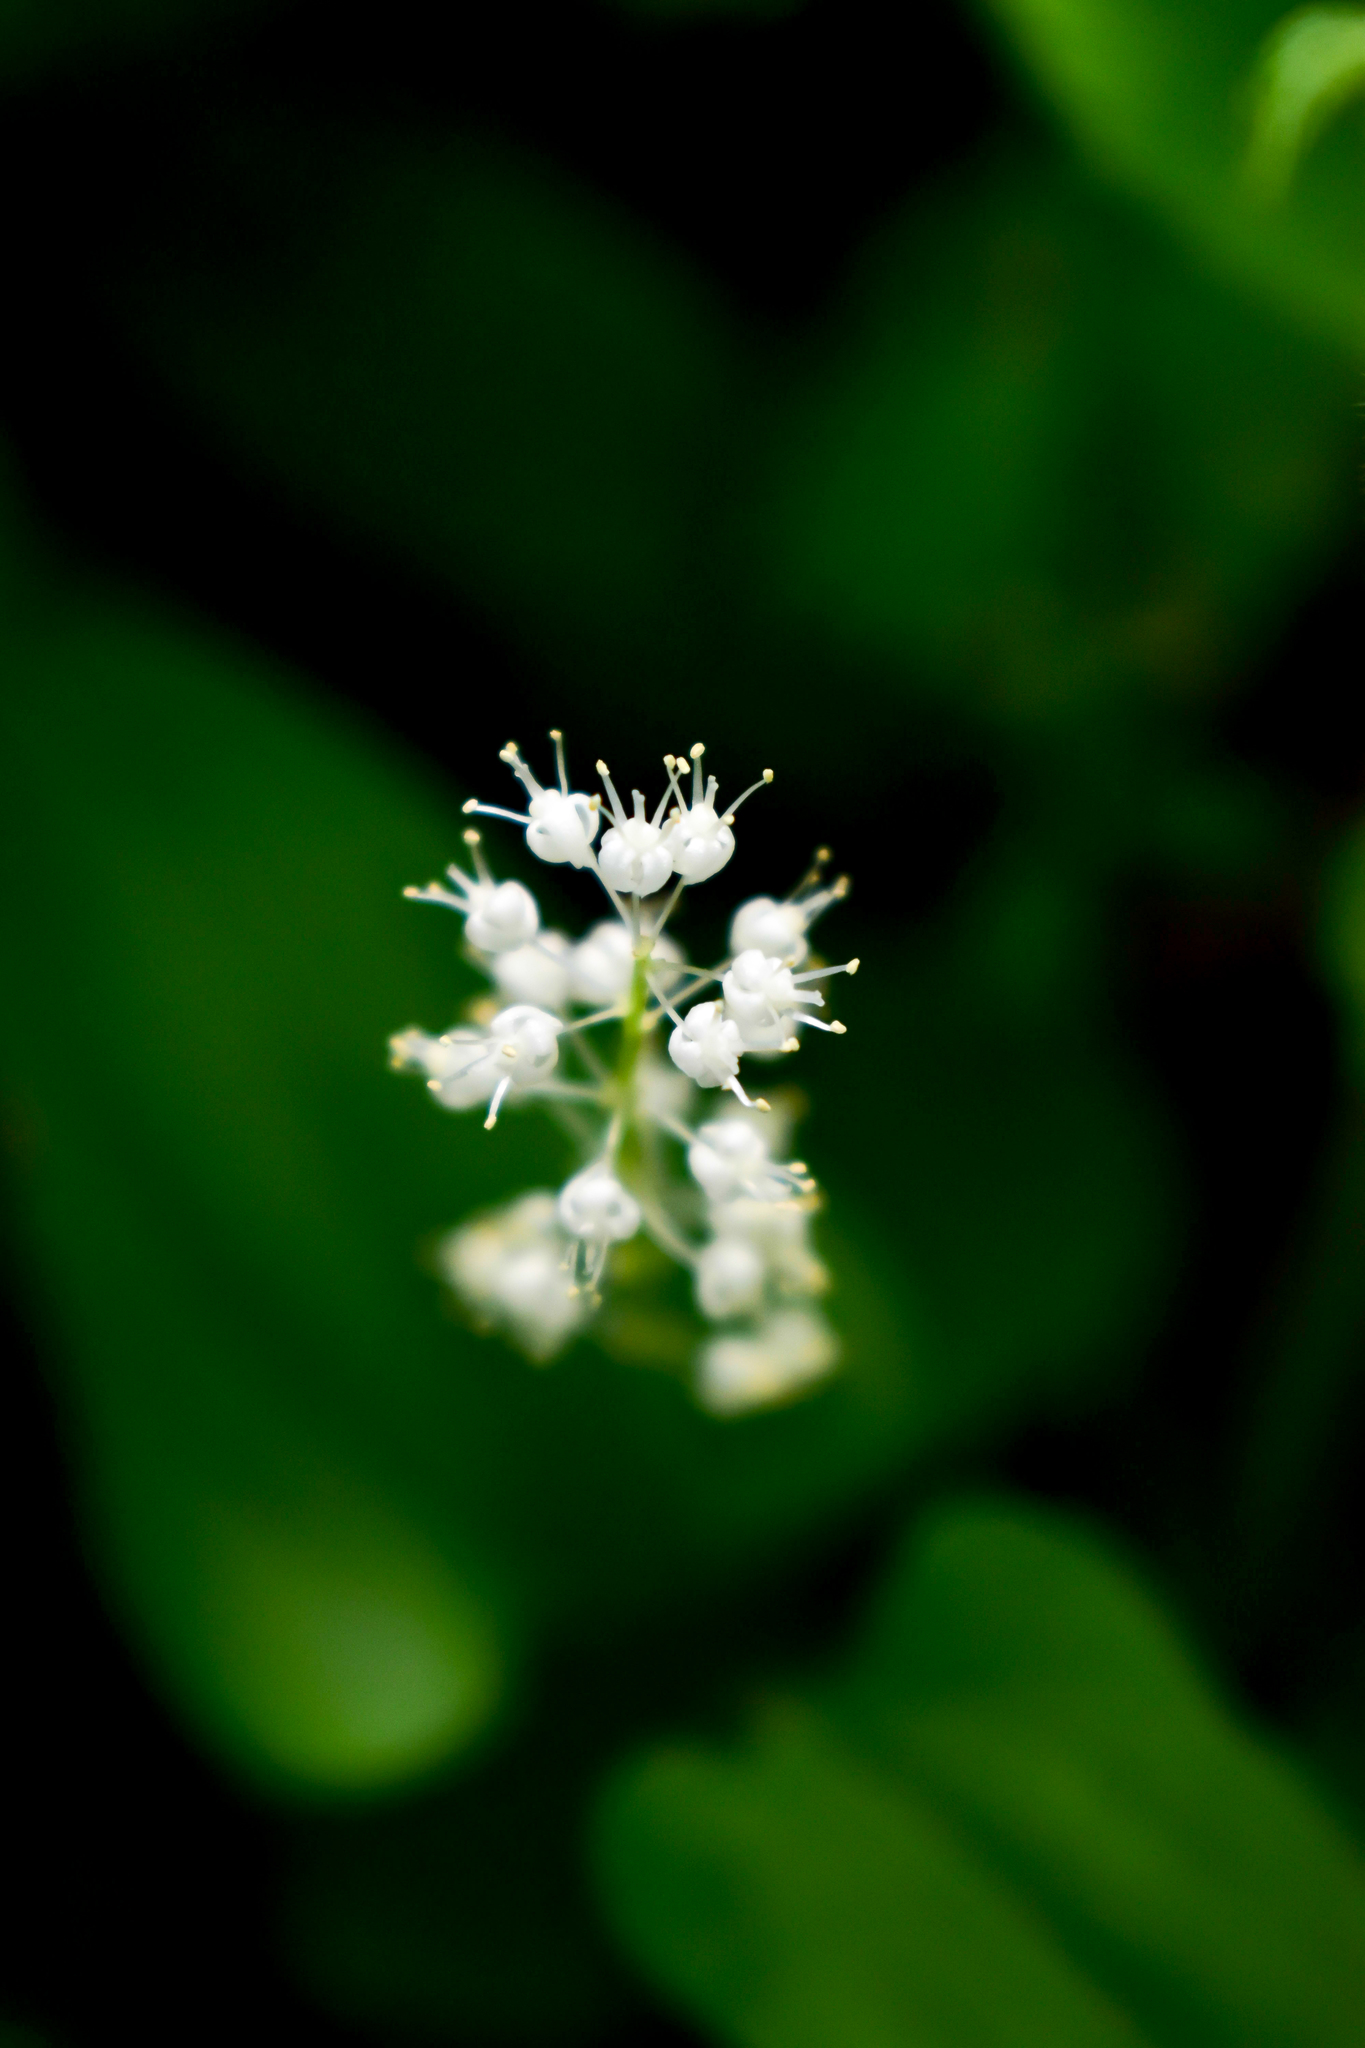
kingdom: Plantae
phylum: Tracheophyta
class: Liliopsida
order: Asparagales
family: Asparagaceae
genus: Maianthemum
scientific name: Maianthemum bifolium
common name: May lily
